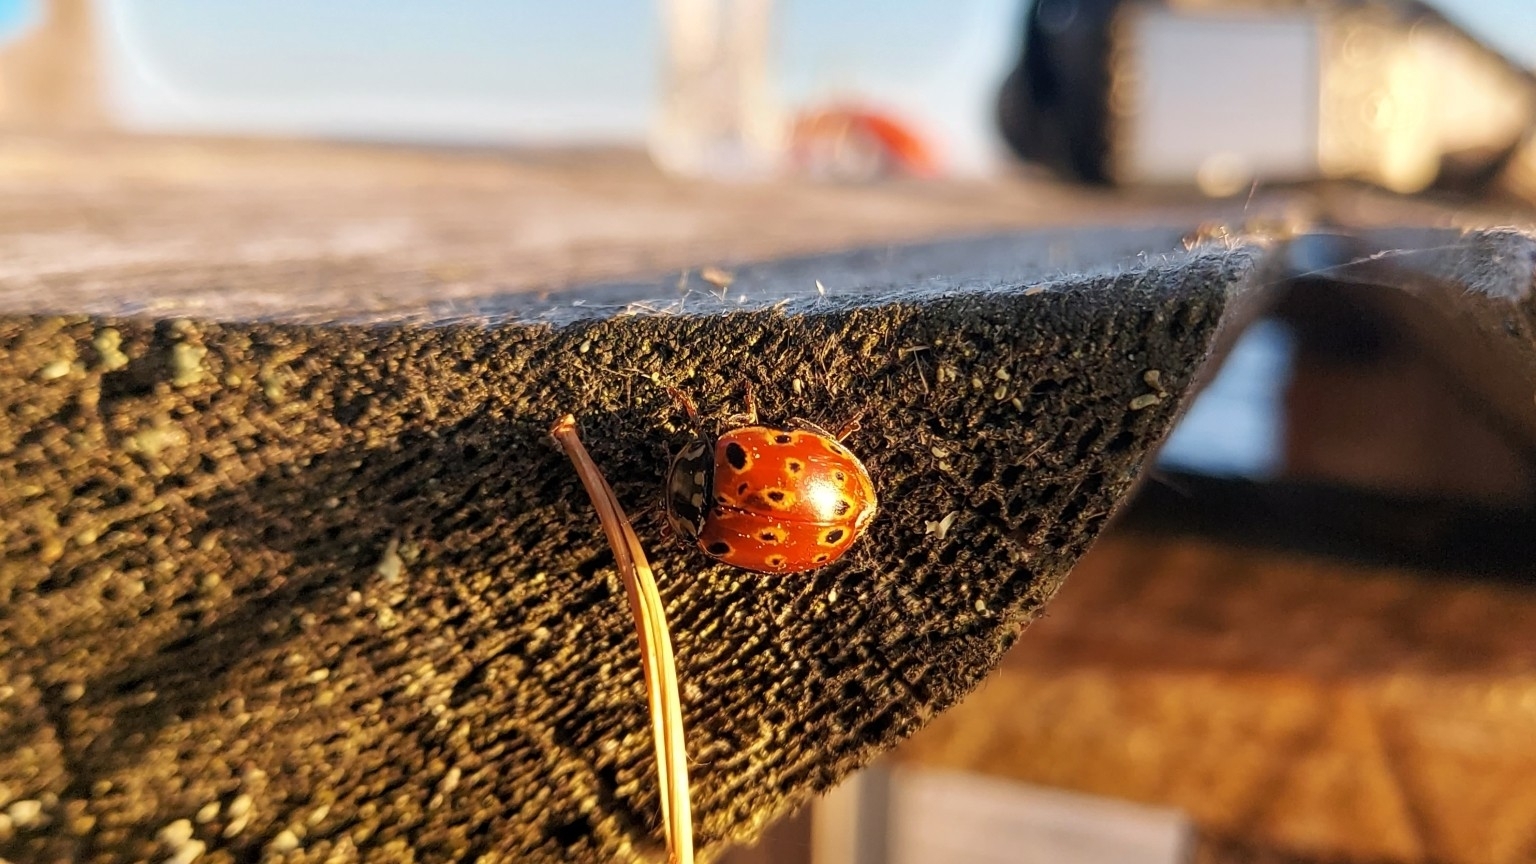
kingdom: Animalia
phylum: Arthropoda
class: Insecta
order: Coleoptera
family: Coccinellidae
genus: Anatis
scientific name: Anatis ocellata
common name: Eyed ladybird
